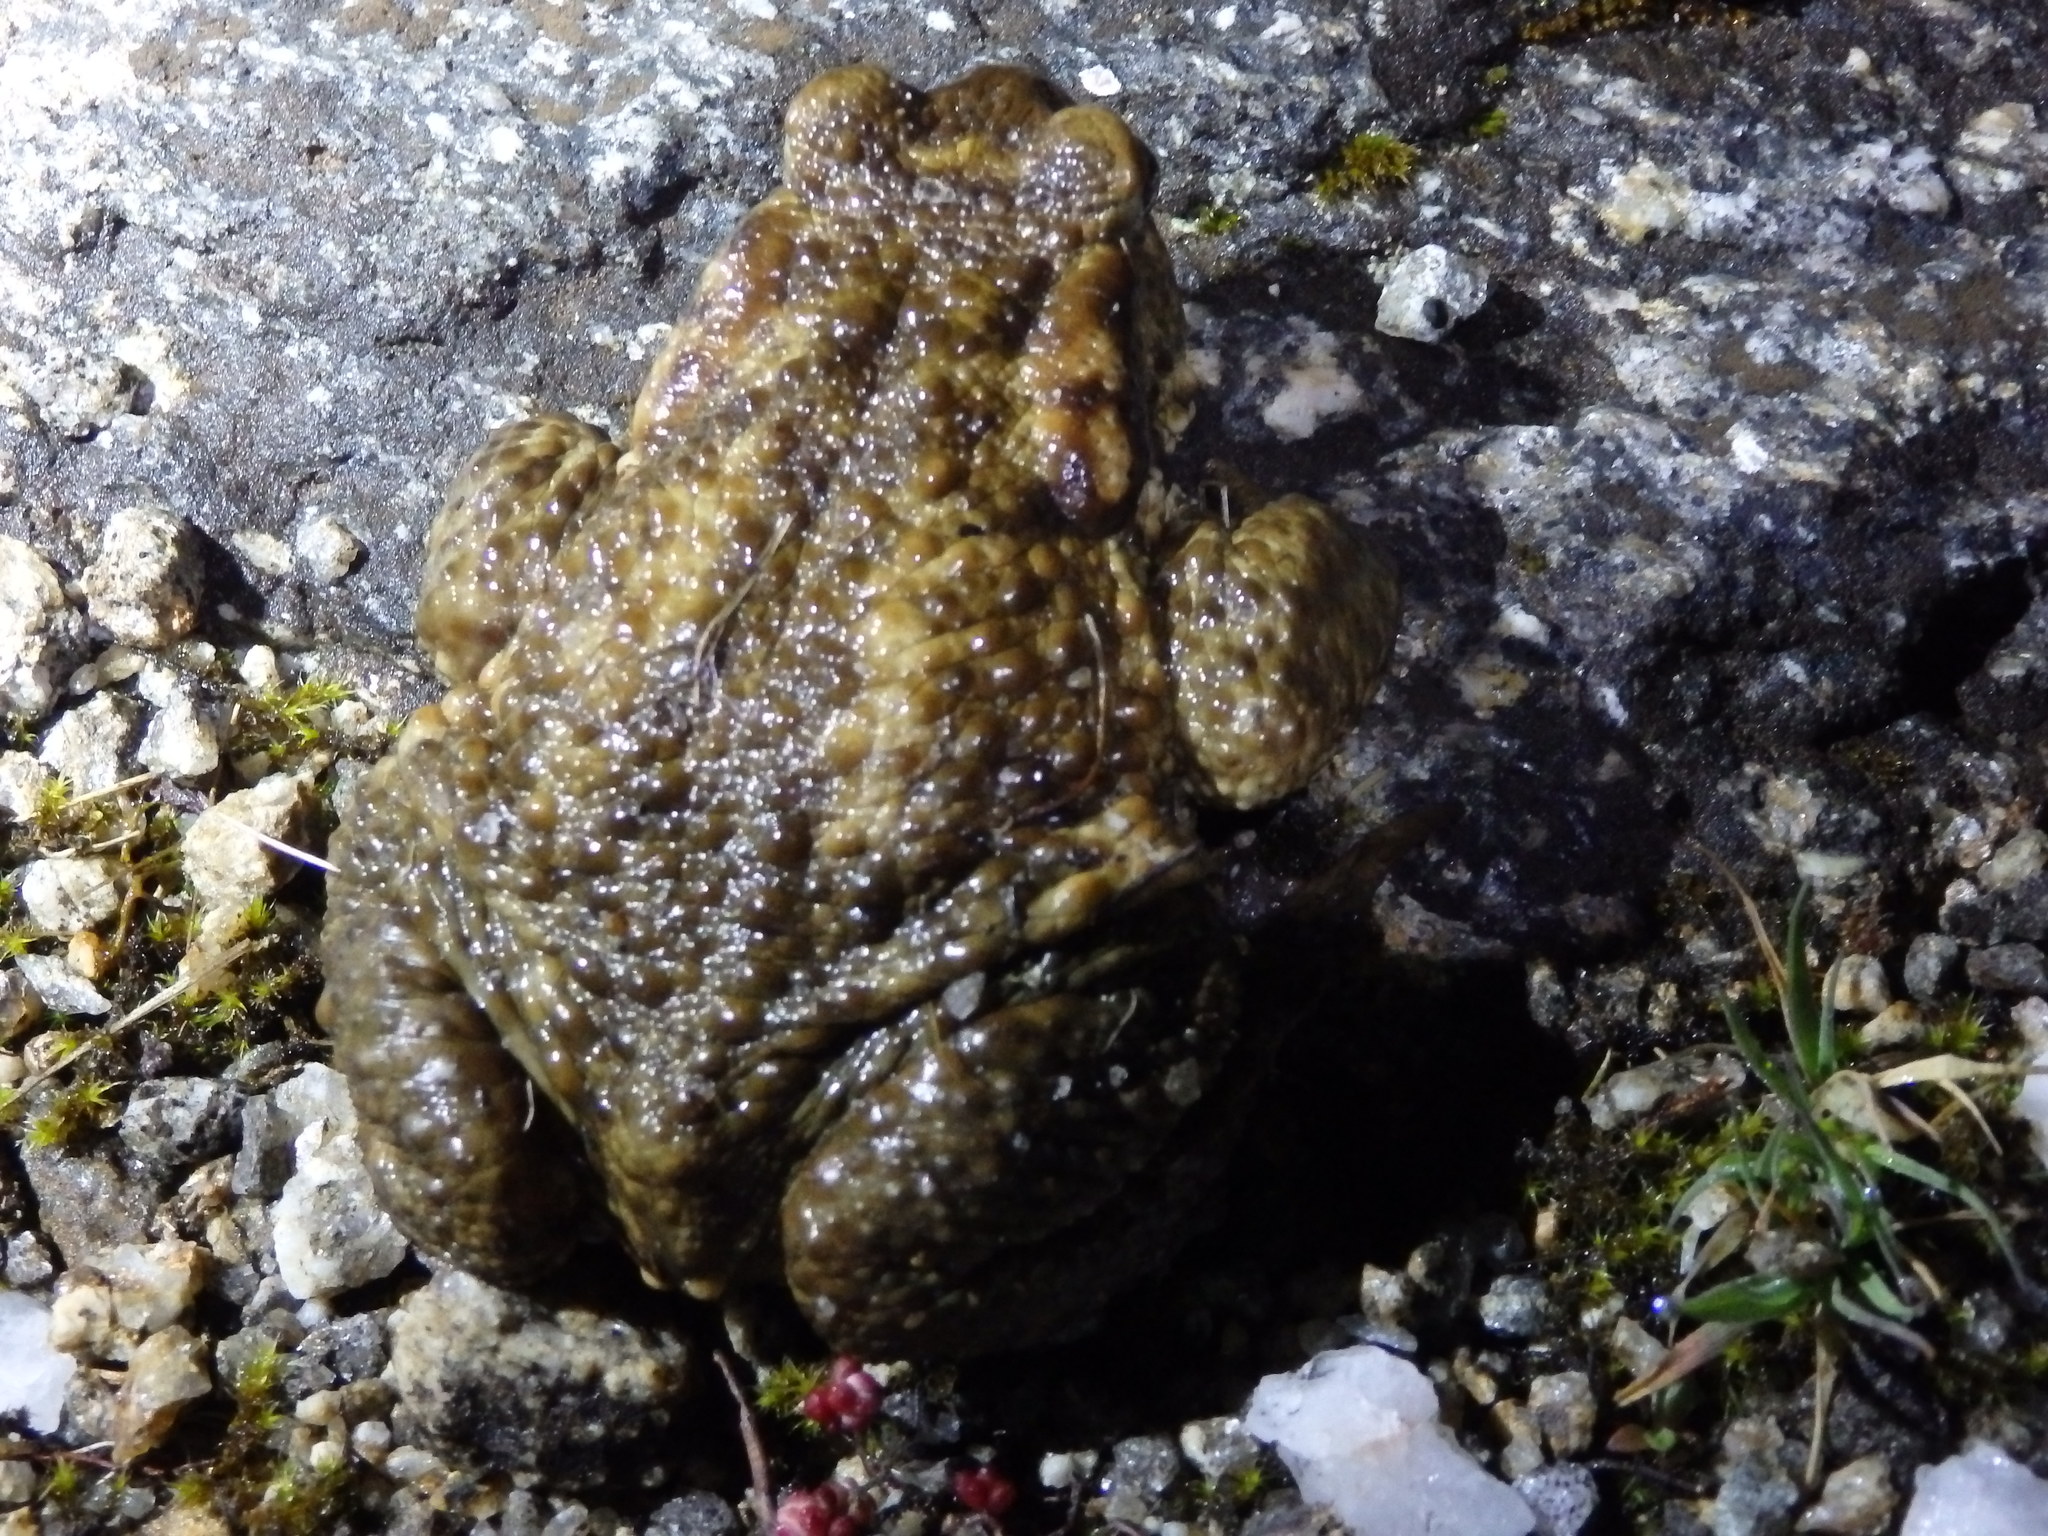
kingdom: Animalia
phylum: Chordata
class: Amphibia
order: Anura
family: Bufonidae
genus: Bufo
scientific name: Bufo spinosus
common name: Western common toad
